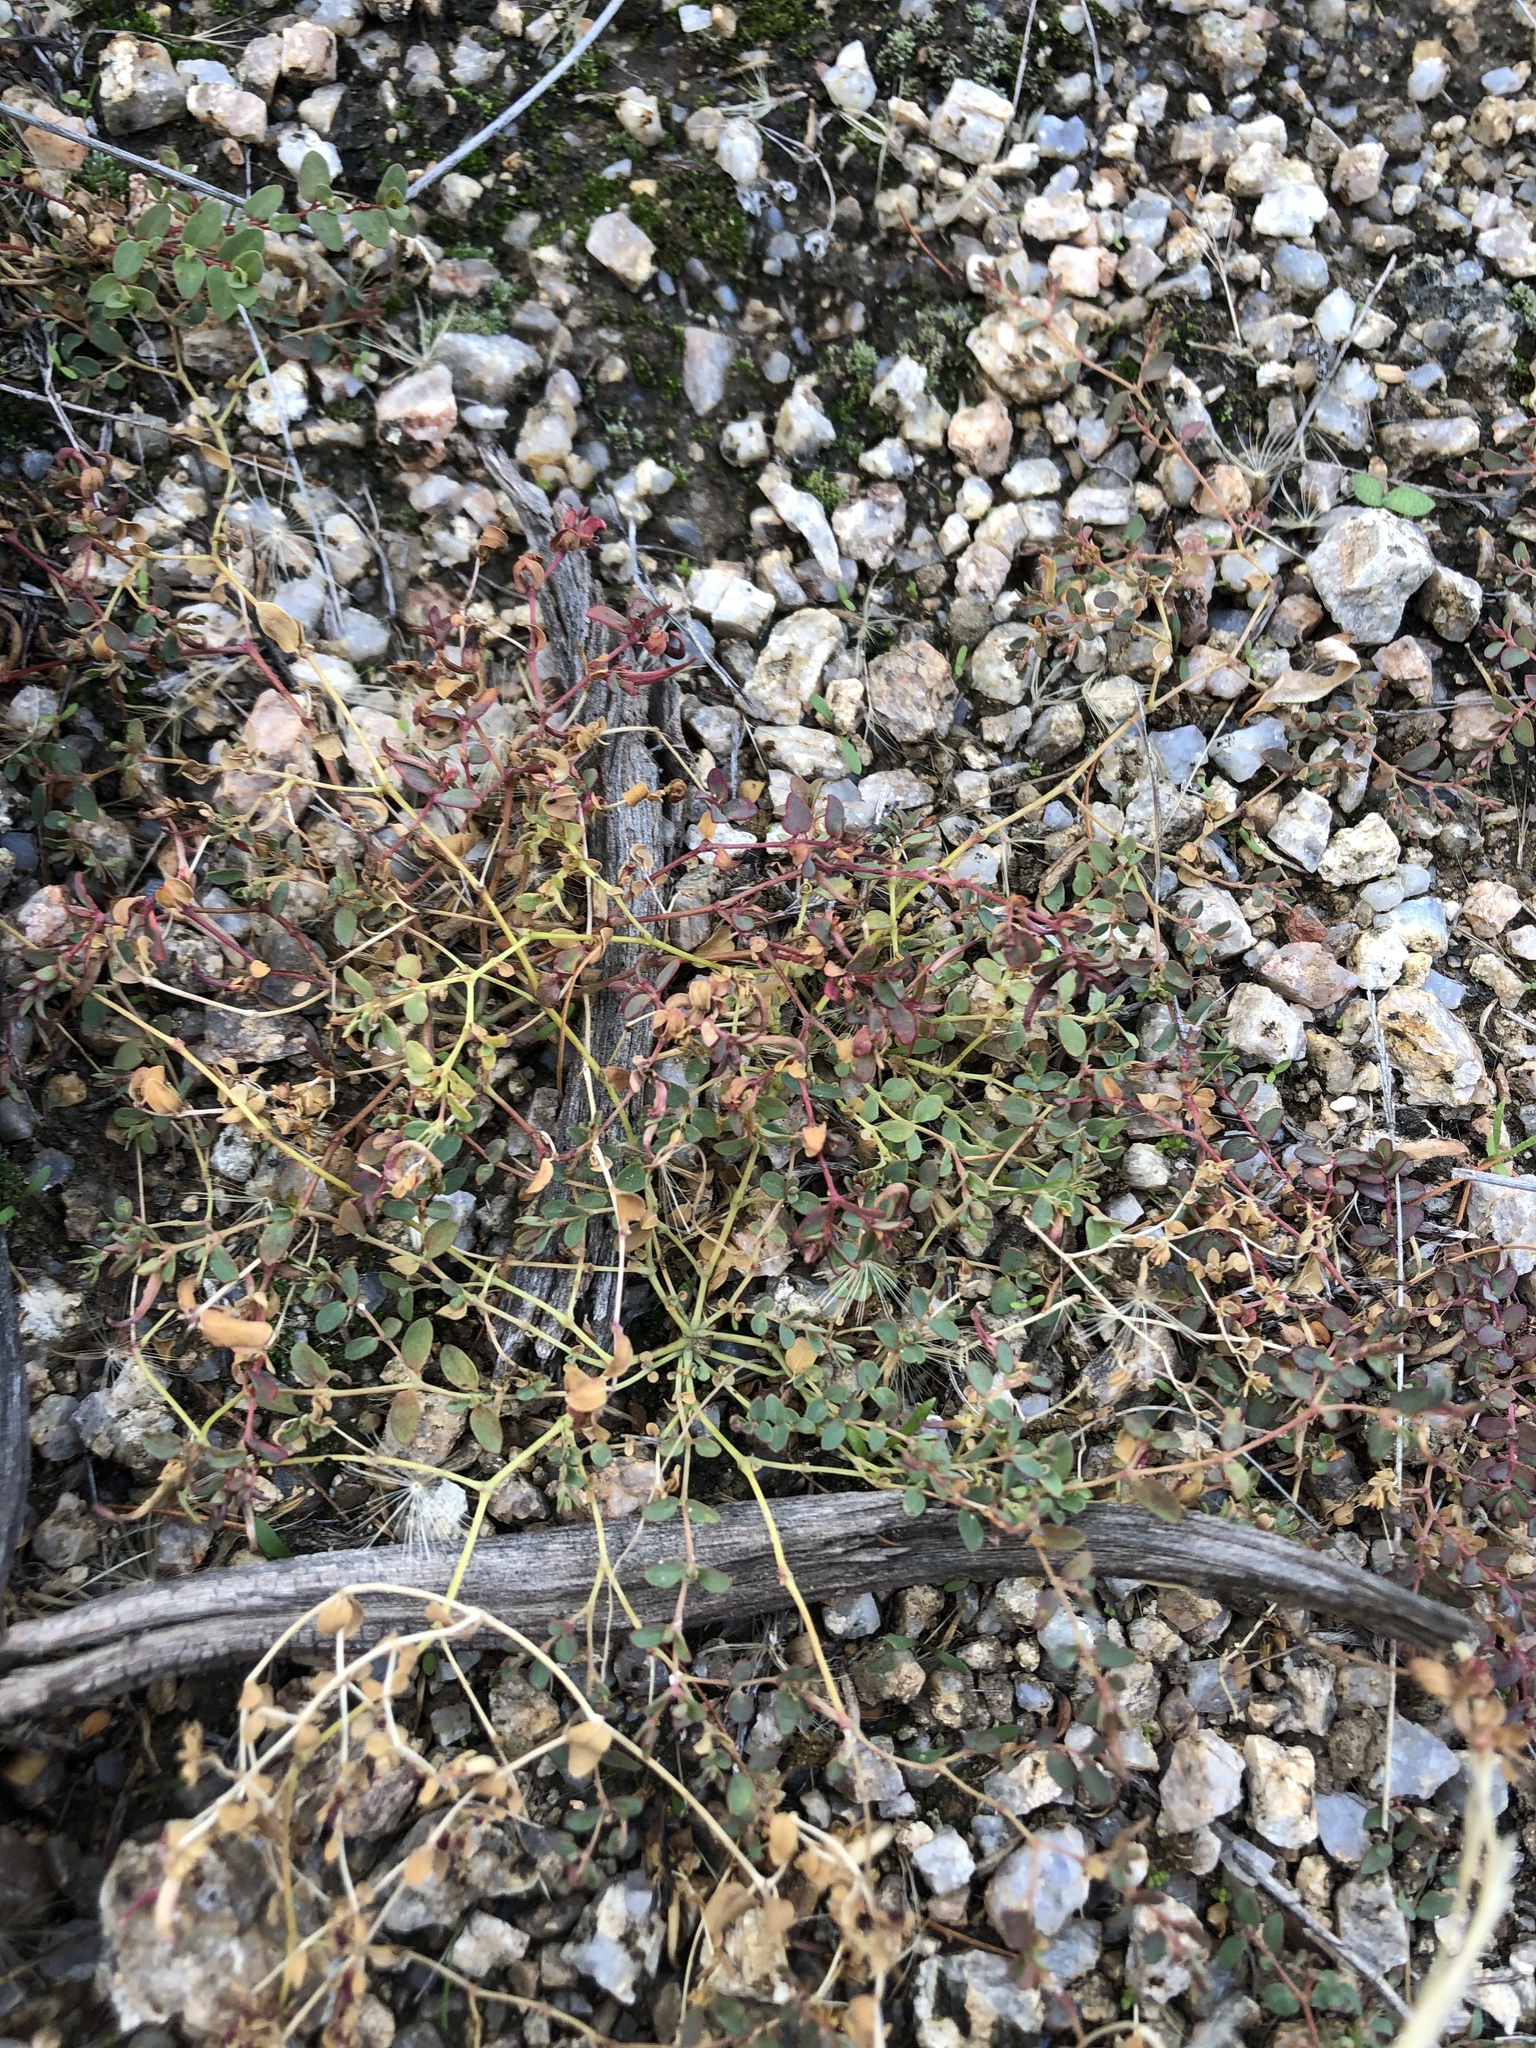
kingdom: Plantae
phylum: Tracheophyta
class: Magnoliopsida
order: Malpighiales
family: Euphorbiaceae
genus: Euphorbia
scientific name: Euphorbia polycarpa
